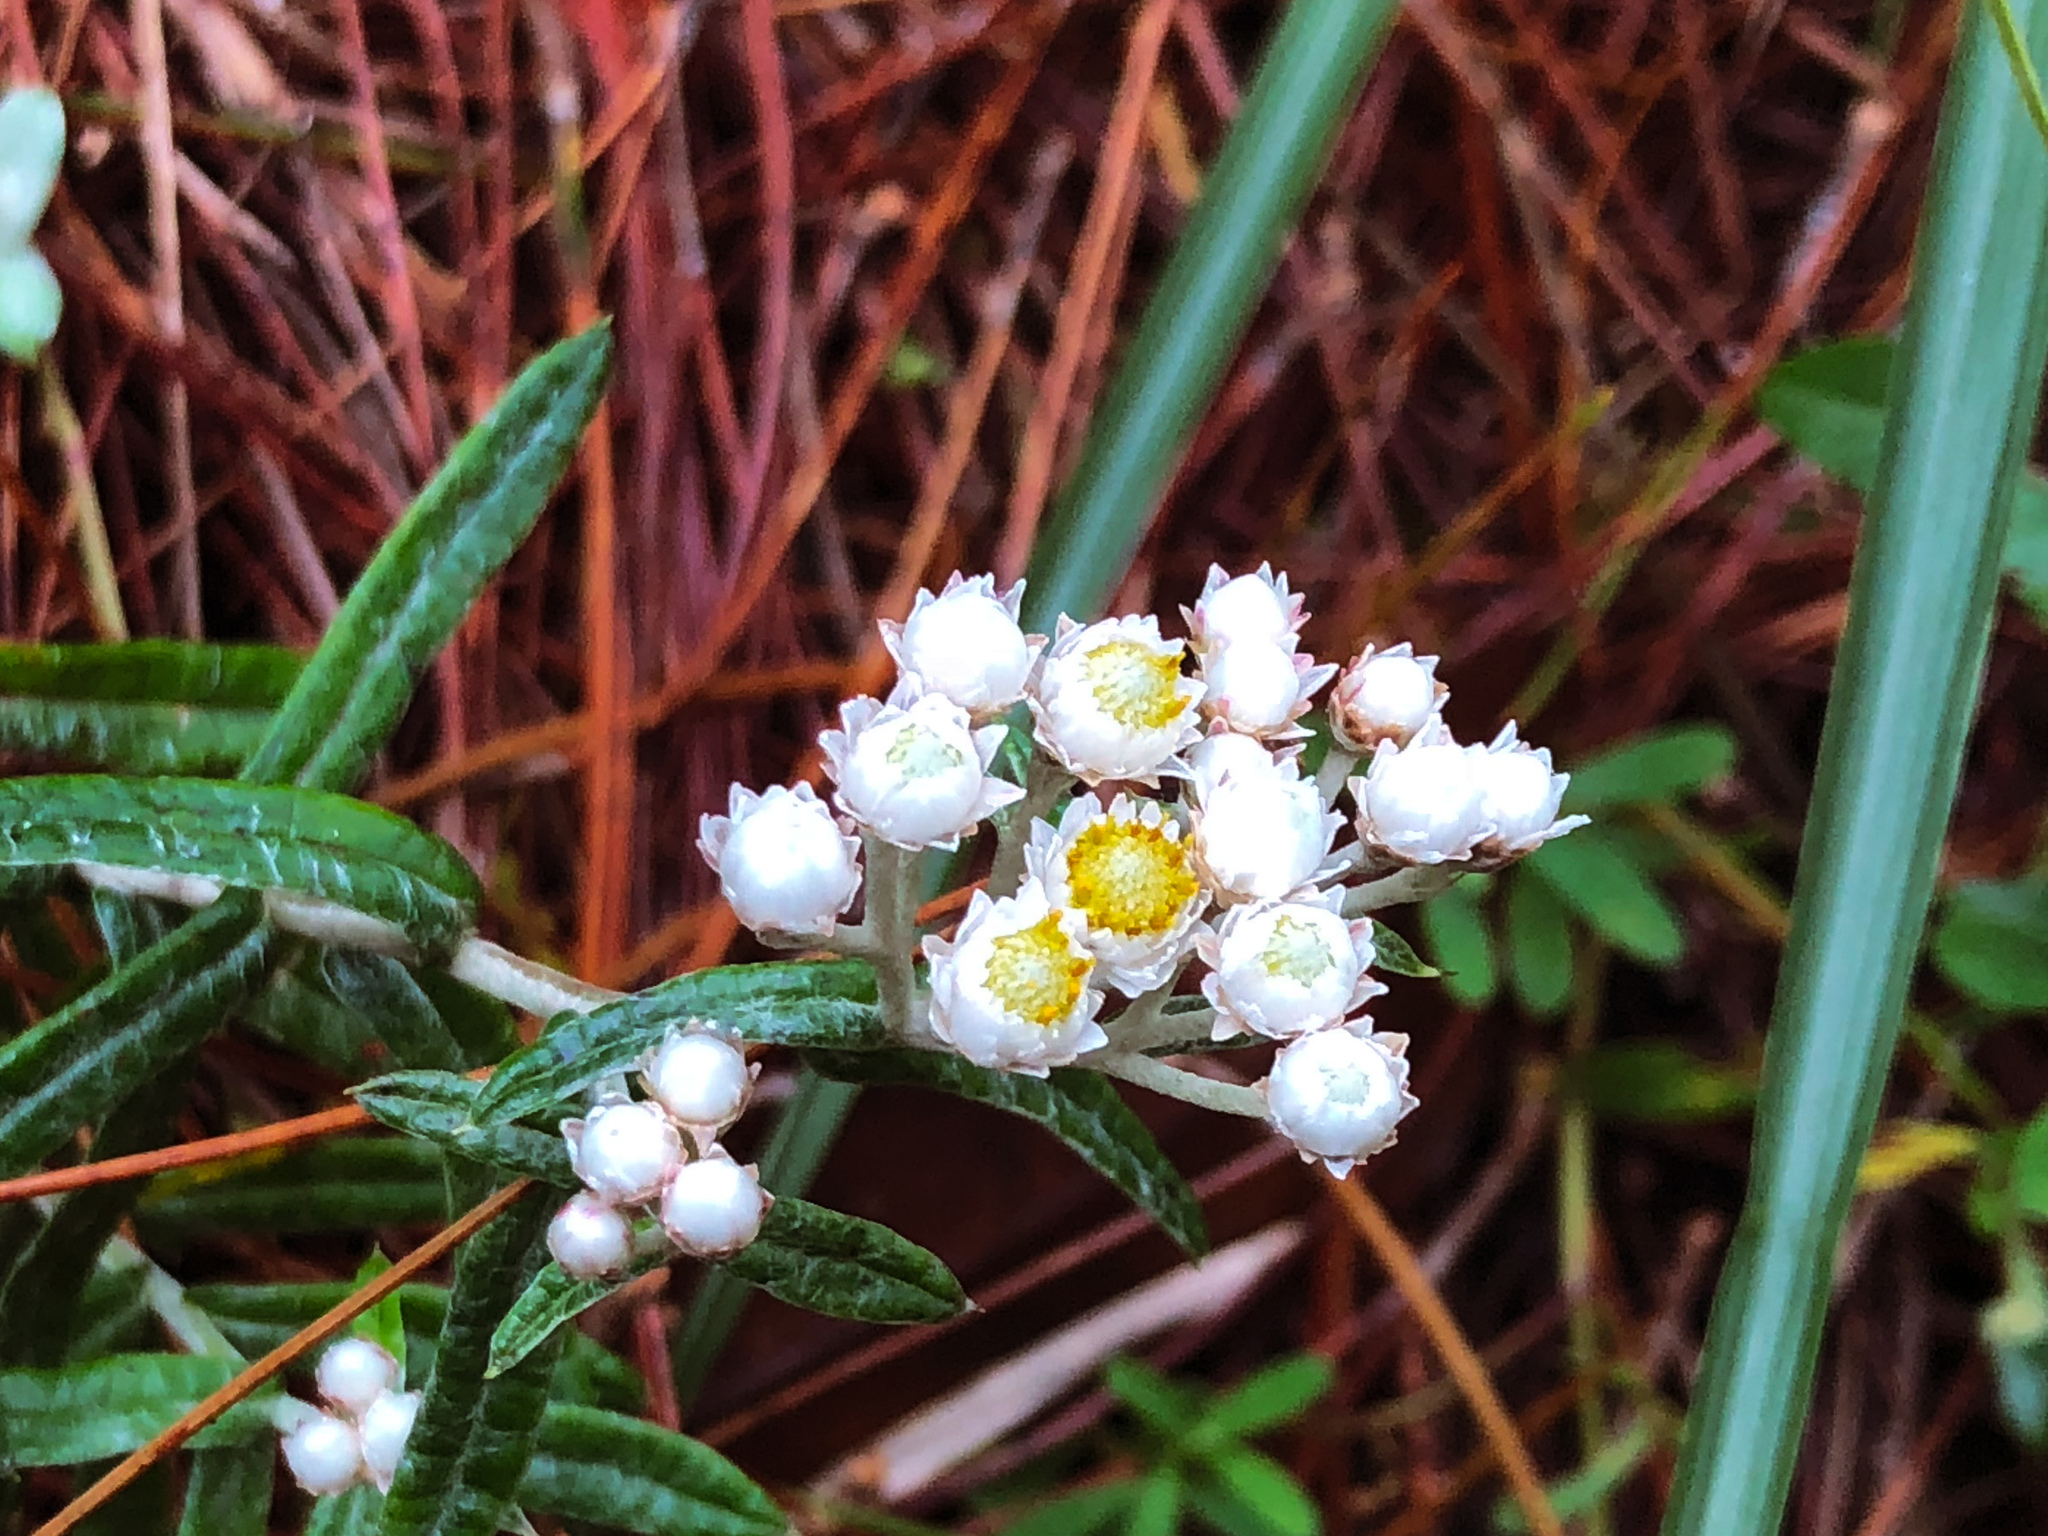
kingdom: Plantae
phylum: Tracheophyta
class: Magnoliopsida
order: Asterales
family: Asteraceae
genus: Anaphalis
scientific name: Anaphalis morrisonicola
